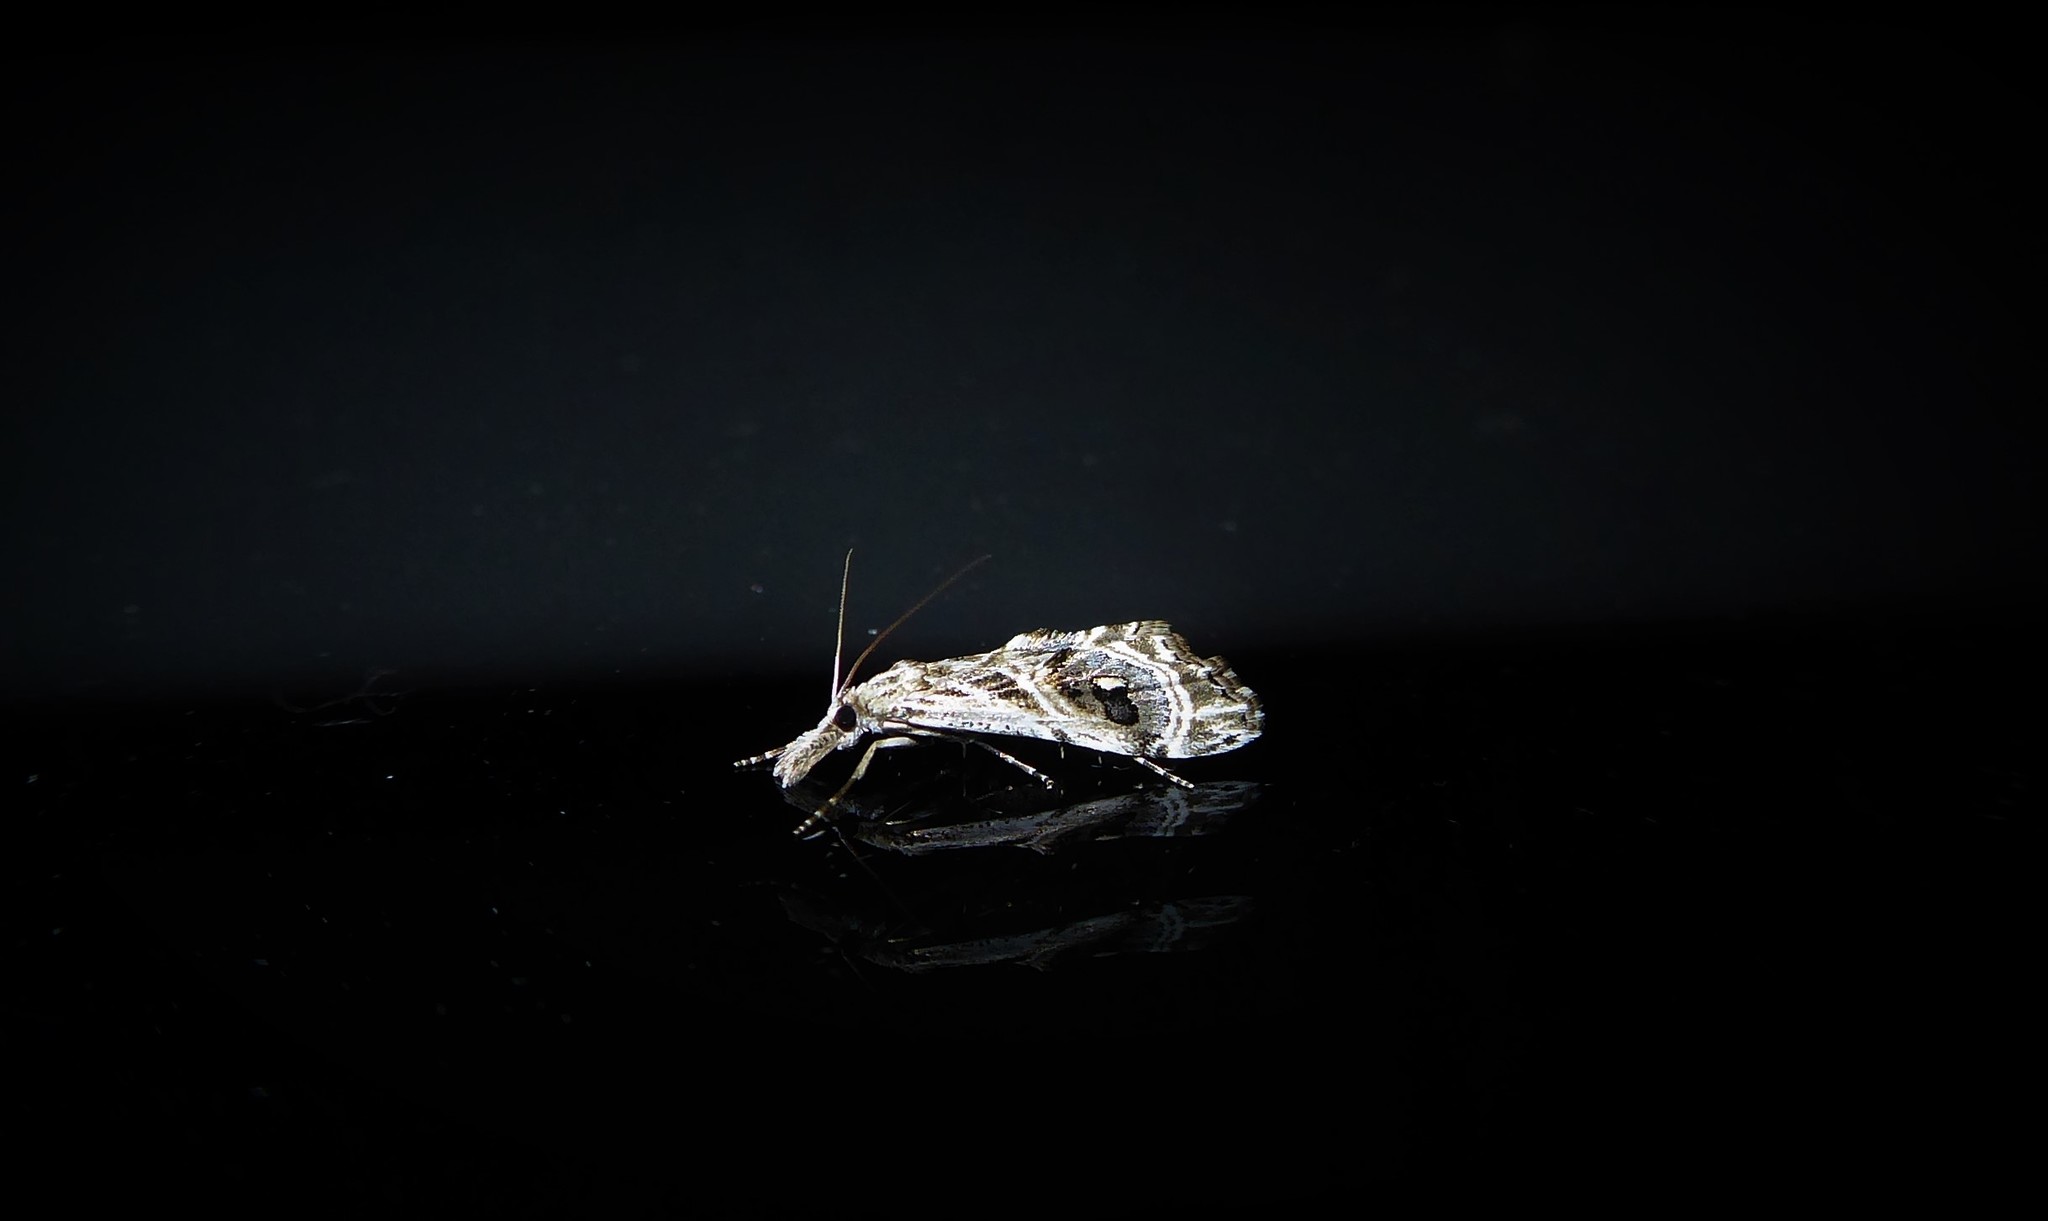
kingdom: Animalia
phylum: Arthropoda
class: Insecta
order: Lepidoptera
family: Crambidae
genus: Gadira
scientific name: Gadira acerella
